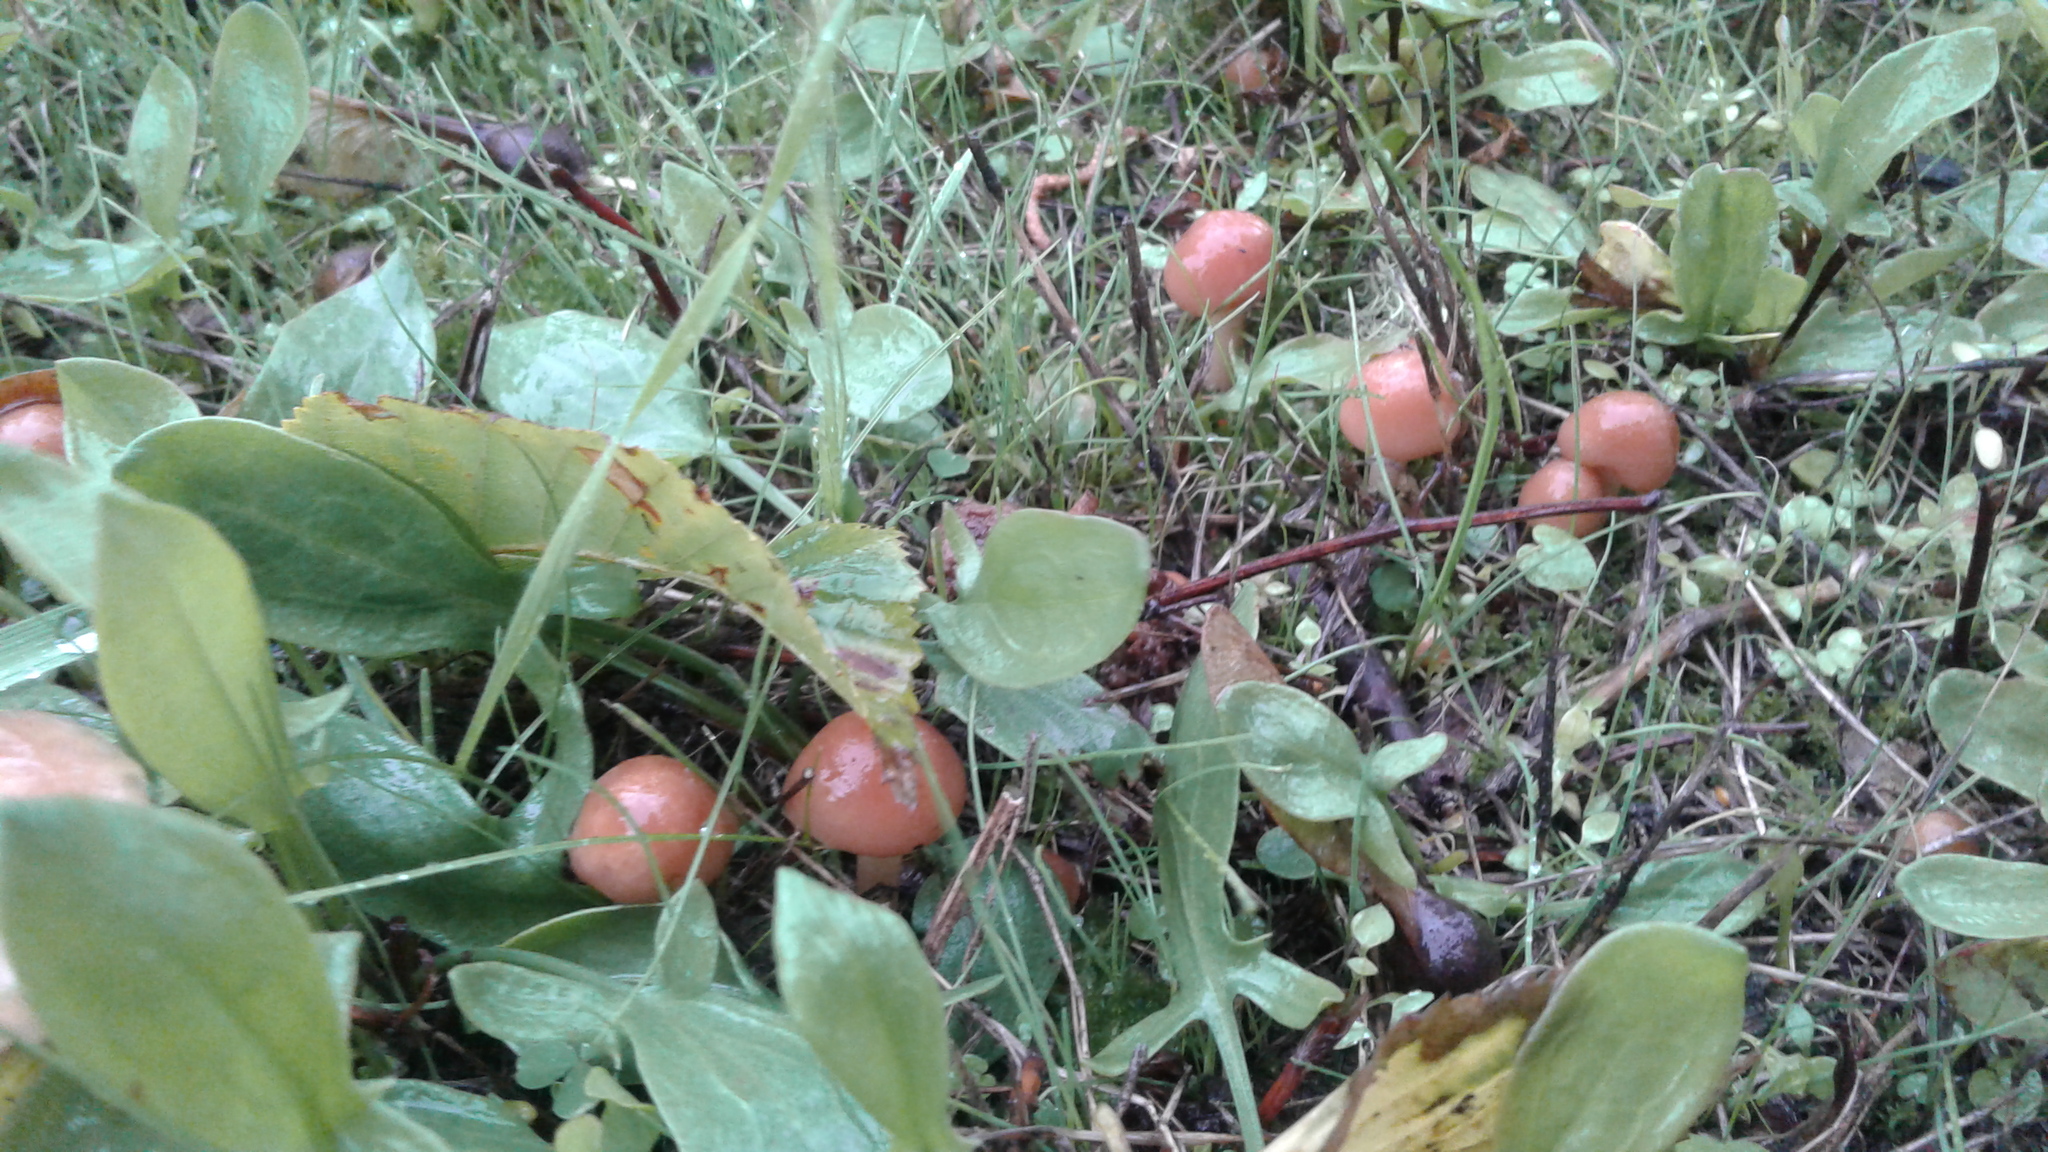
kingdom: Fungi
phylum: Basidiomycota
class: Agaricomycetes
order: Agaricales
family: Marasmiaceae
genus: Marasmius
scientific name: Marasmius oreades
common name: Fairy ring champignon
